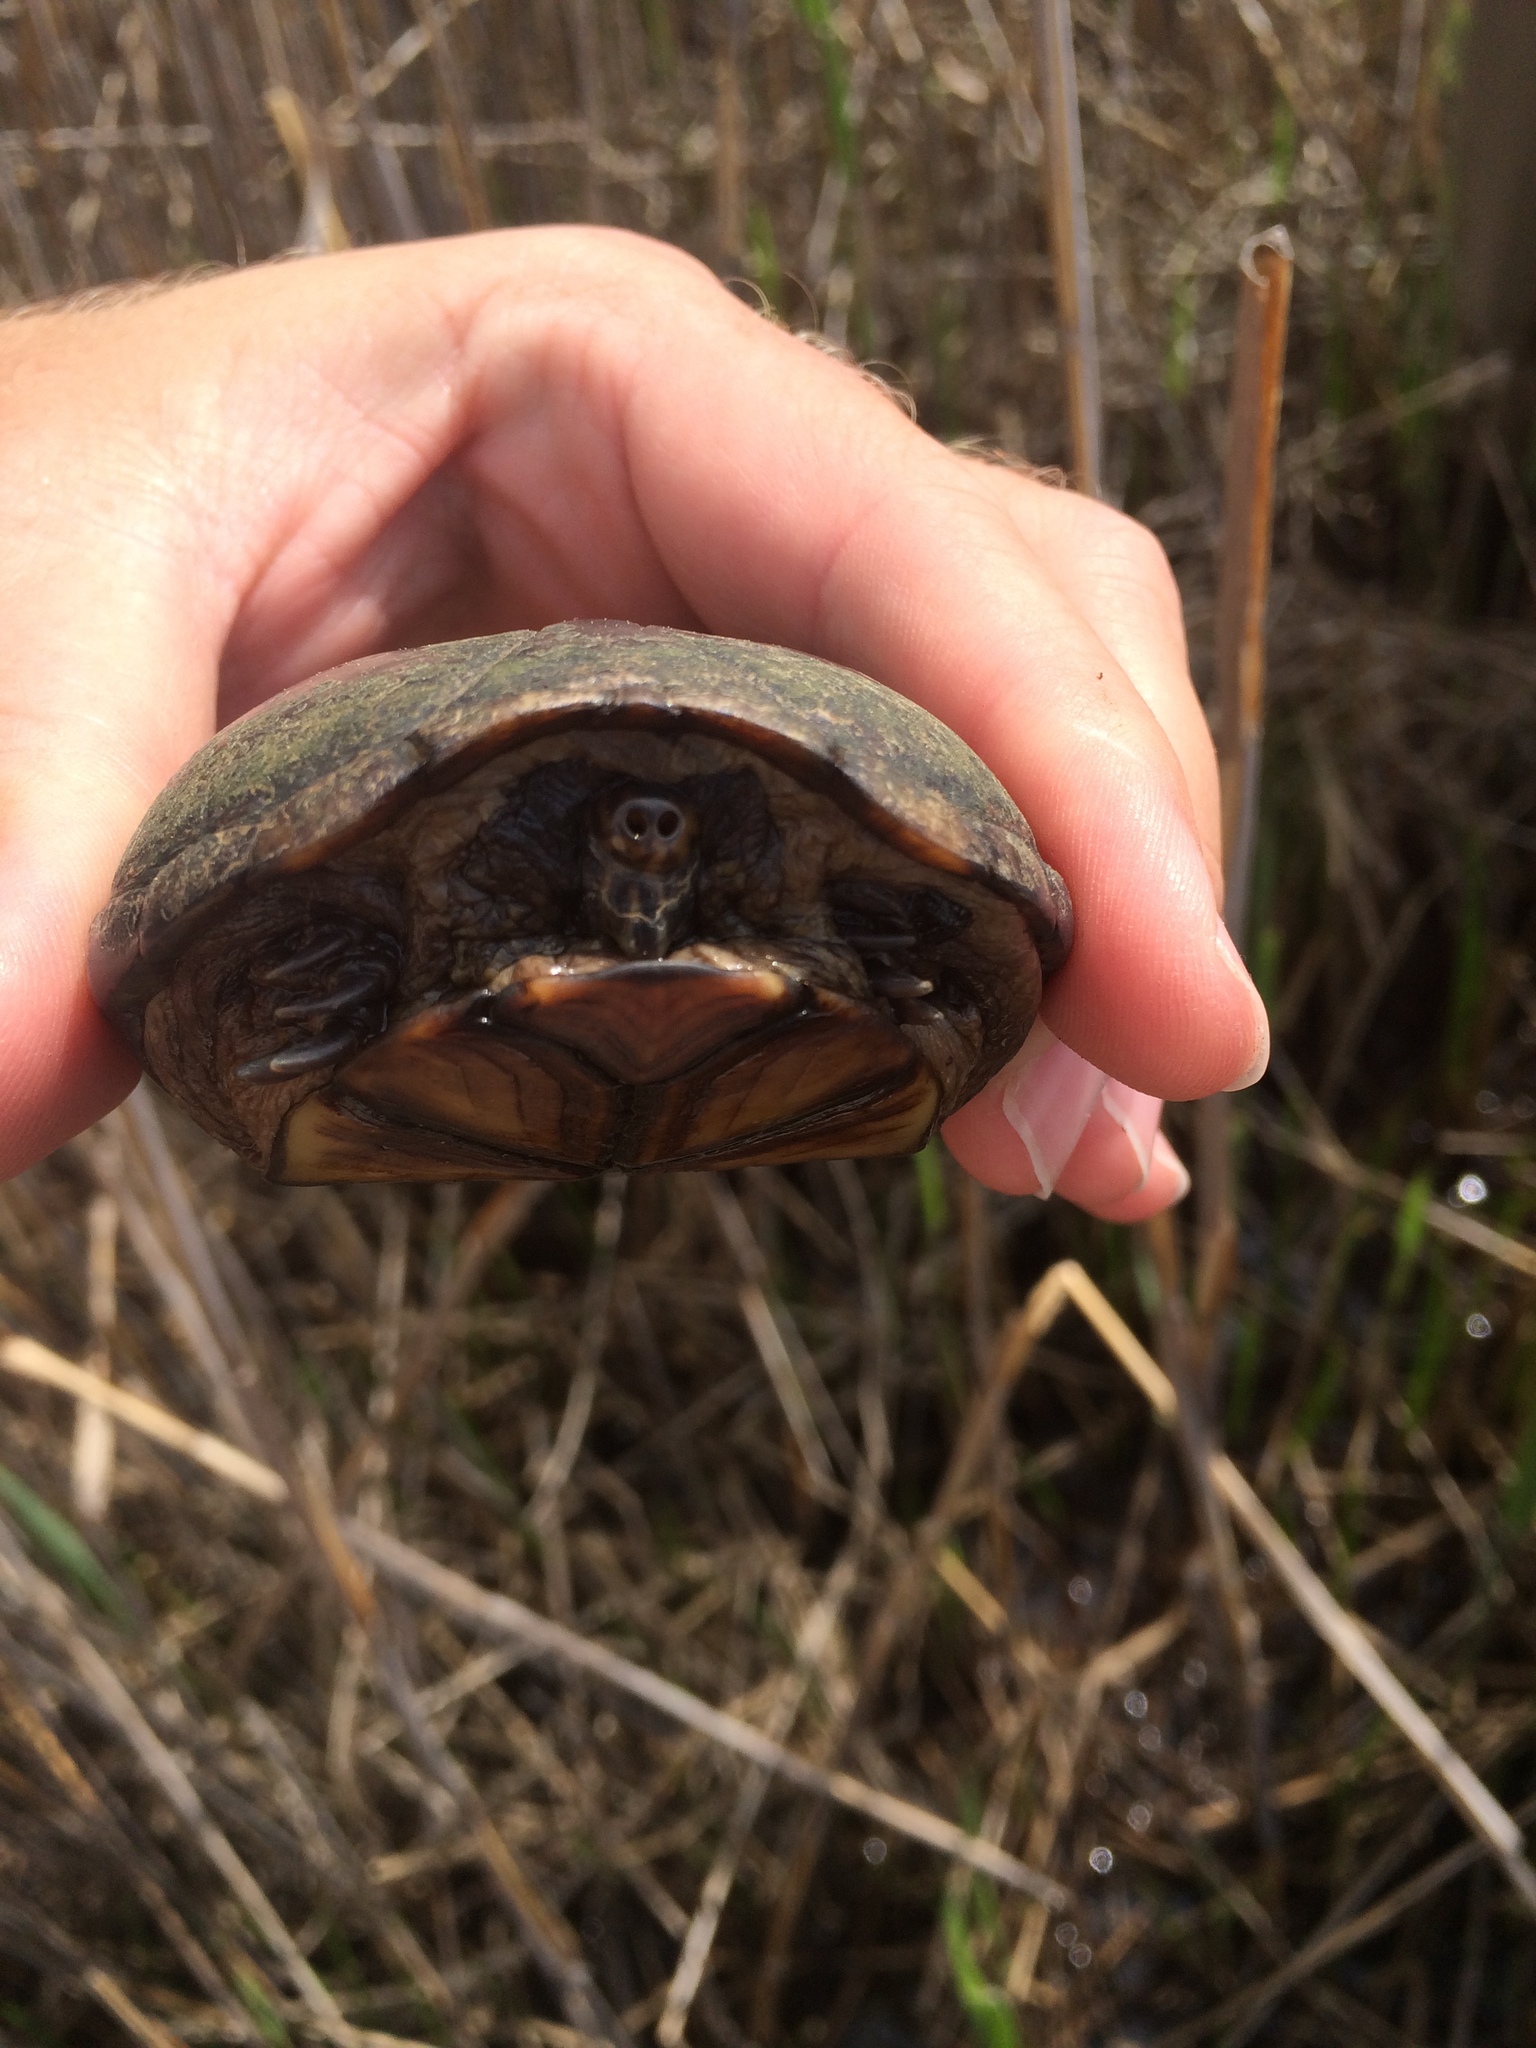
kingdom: Animalia
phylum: Chordata
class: Testudines
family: Kinosternidae
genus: Kinosternon
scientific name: Kinosternon subrubrum
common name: Eastern mud turtle
